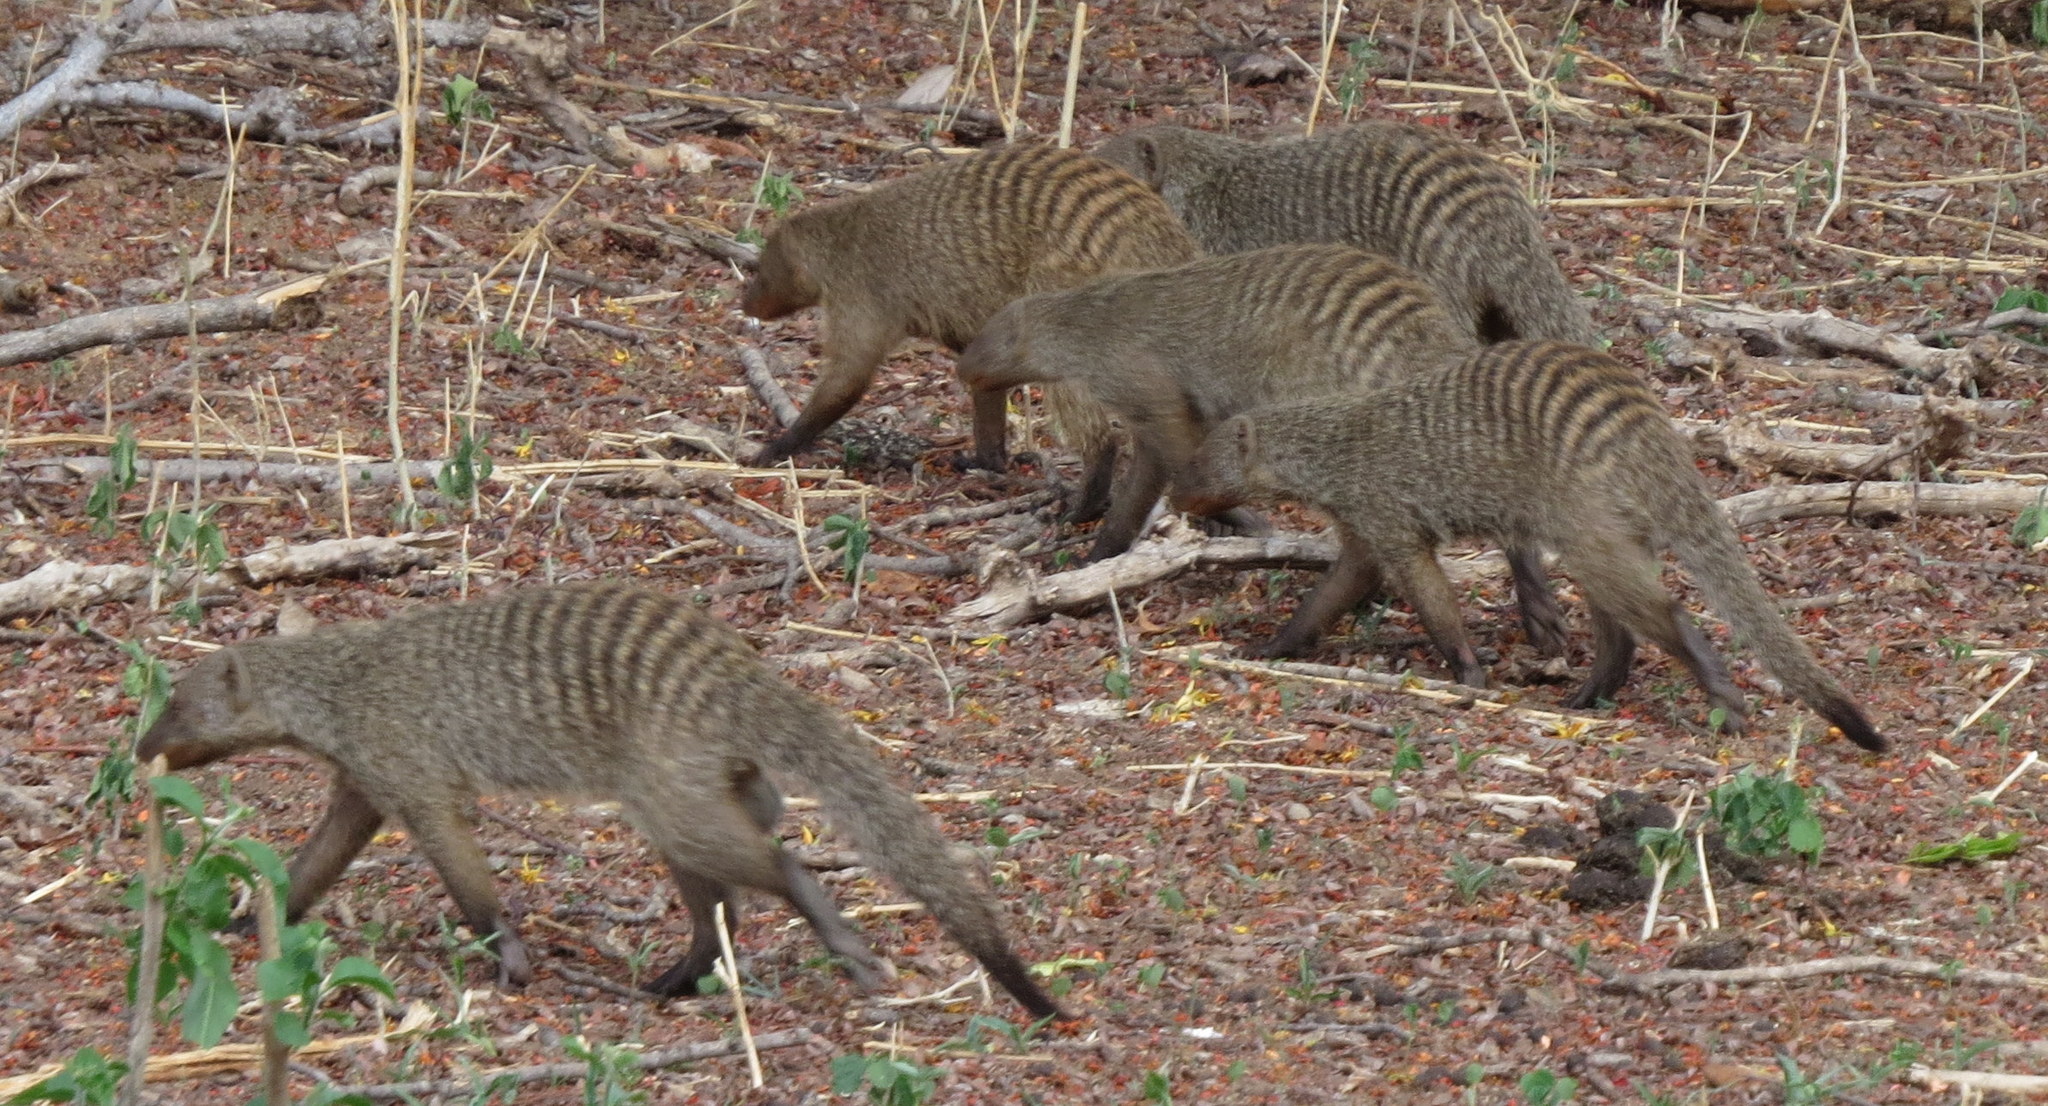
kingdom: Animalia
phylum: Chordata
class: Mammalia
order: Carnivora
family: Herpestidae
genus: Mungos
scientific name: Mungos mungo
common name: Banded mongoose
